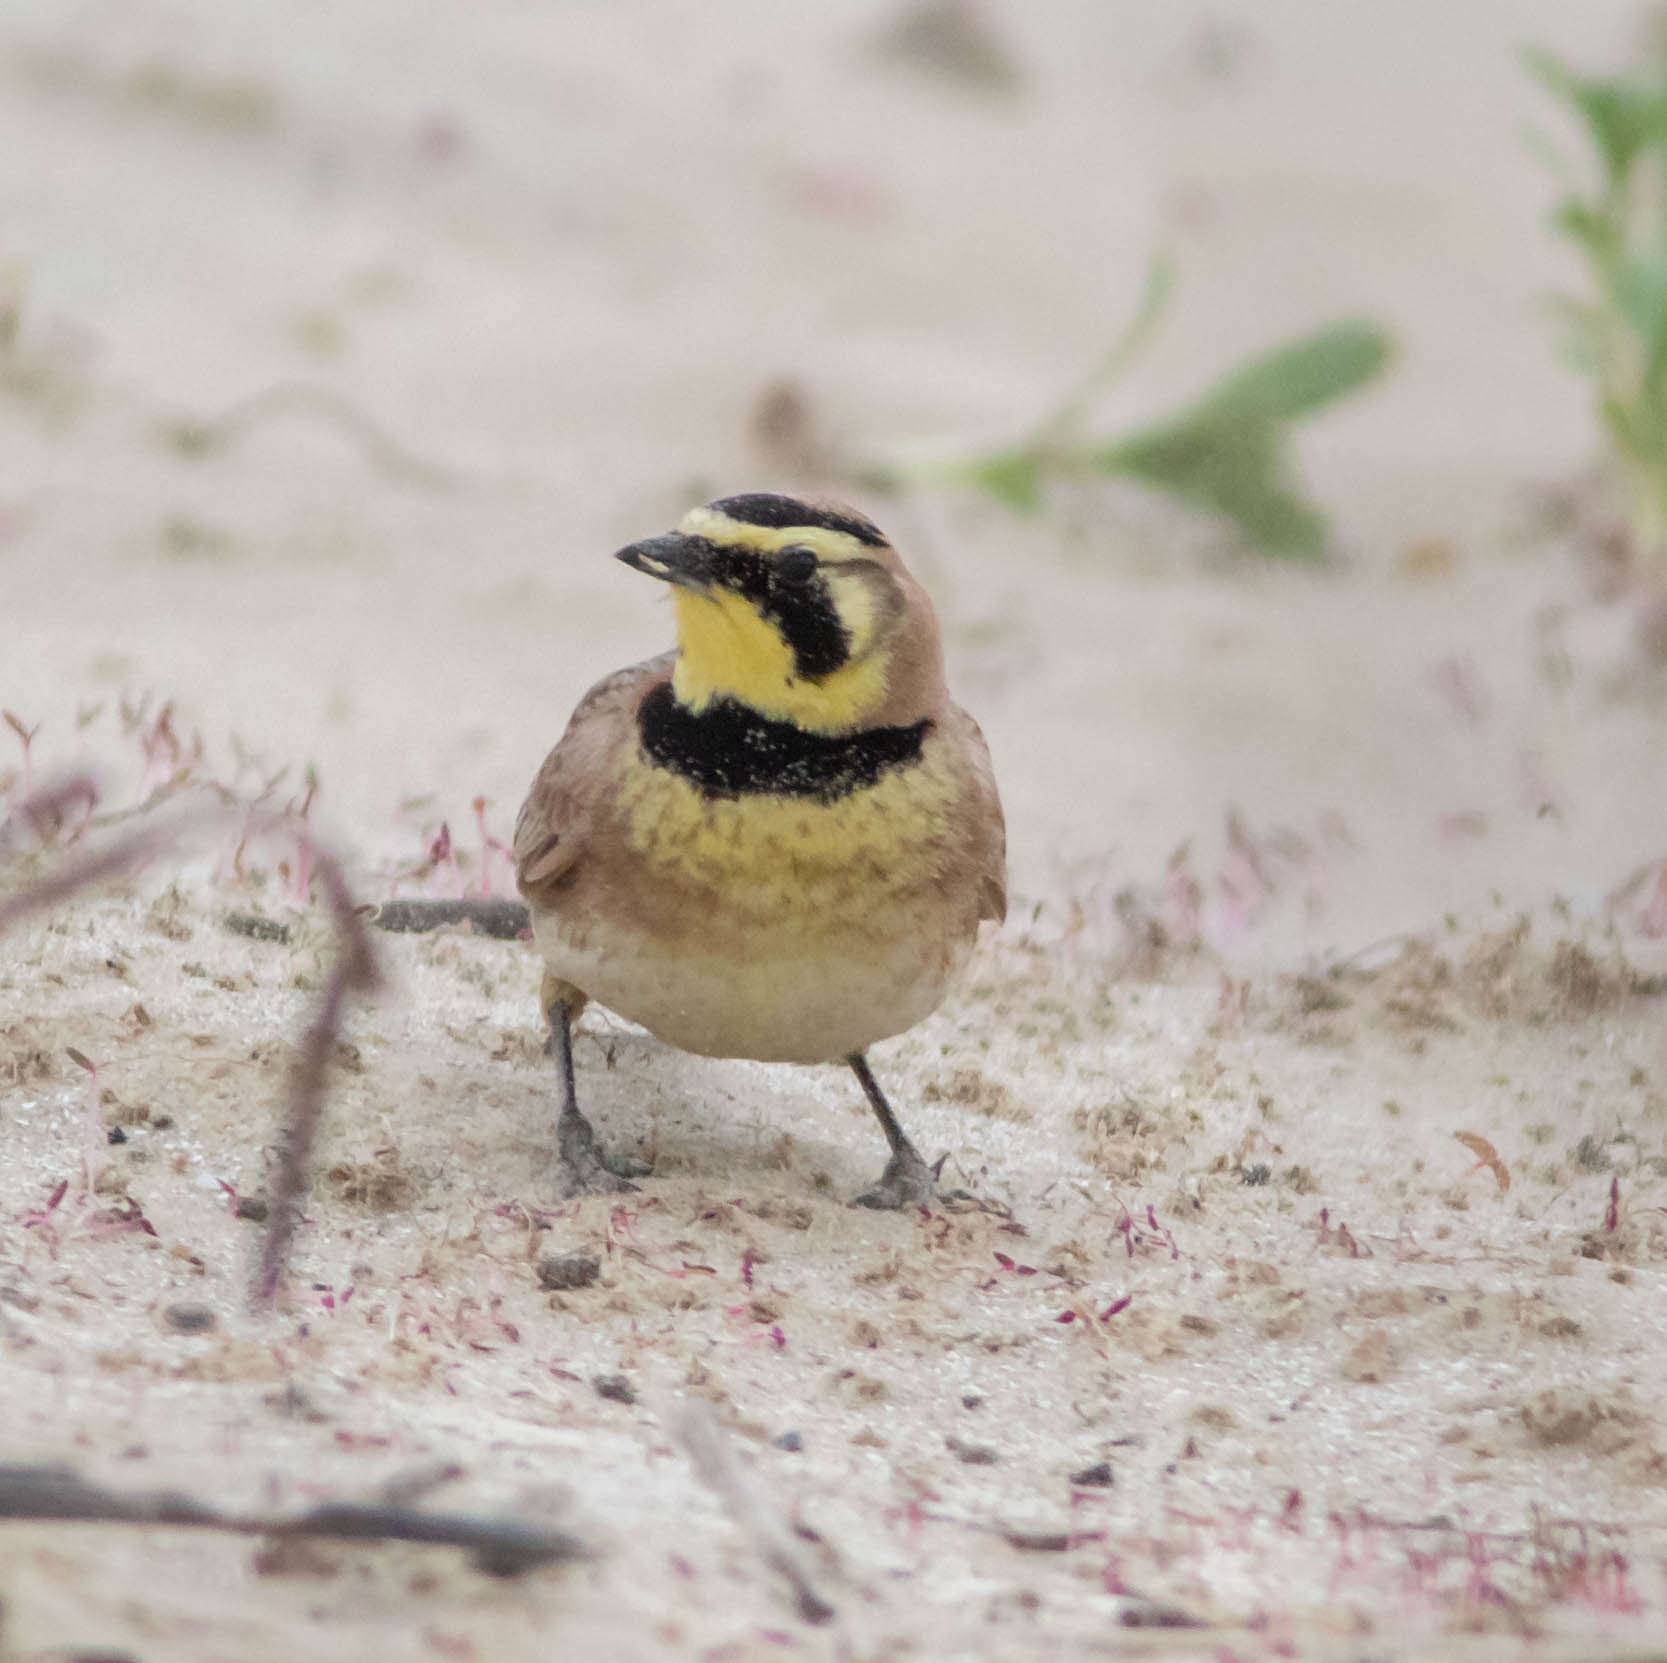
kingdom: Animalia
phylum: Chordata
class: Aves
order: Passeriformes
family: Alaudidae
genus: Eremophila
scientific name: Eremophila alpestris
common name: Horned lark
